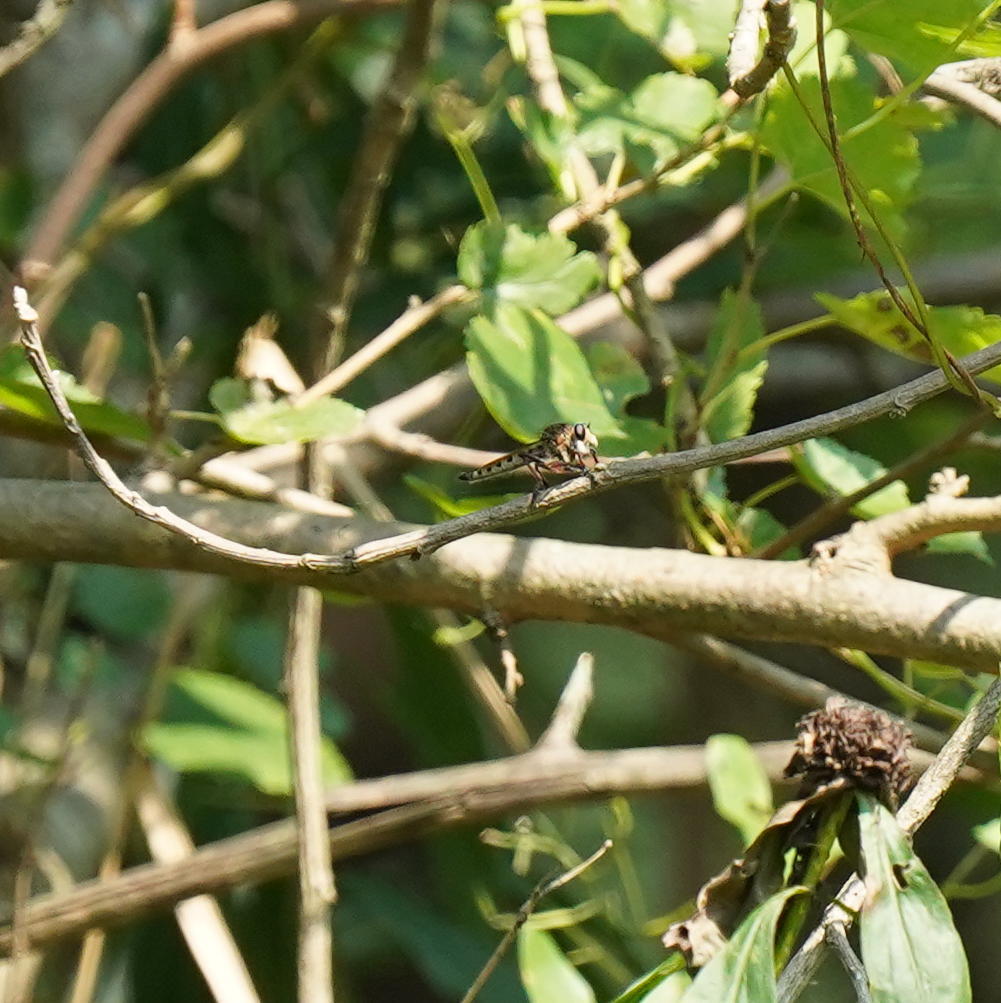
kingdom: Animalia
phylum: Arthropoda
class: Insecta
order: Diptera
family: Asilidae
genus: Promachus
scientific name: Promachus hinei
